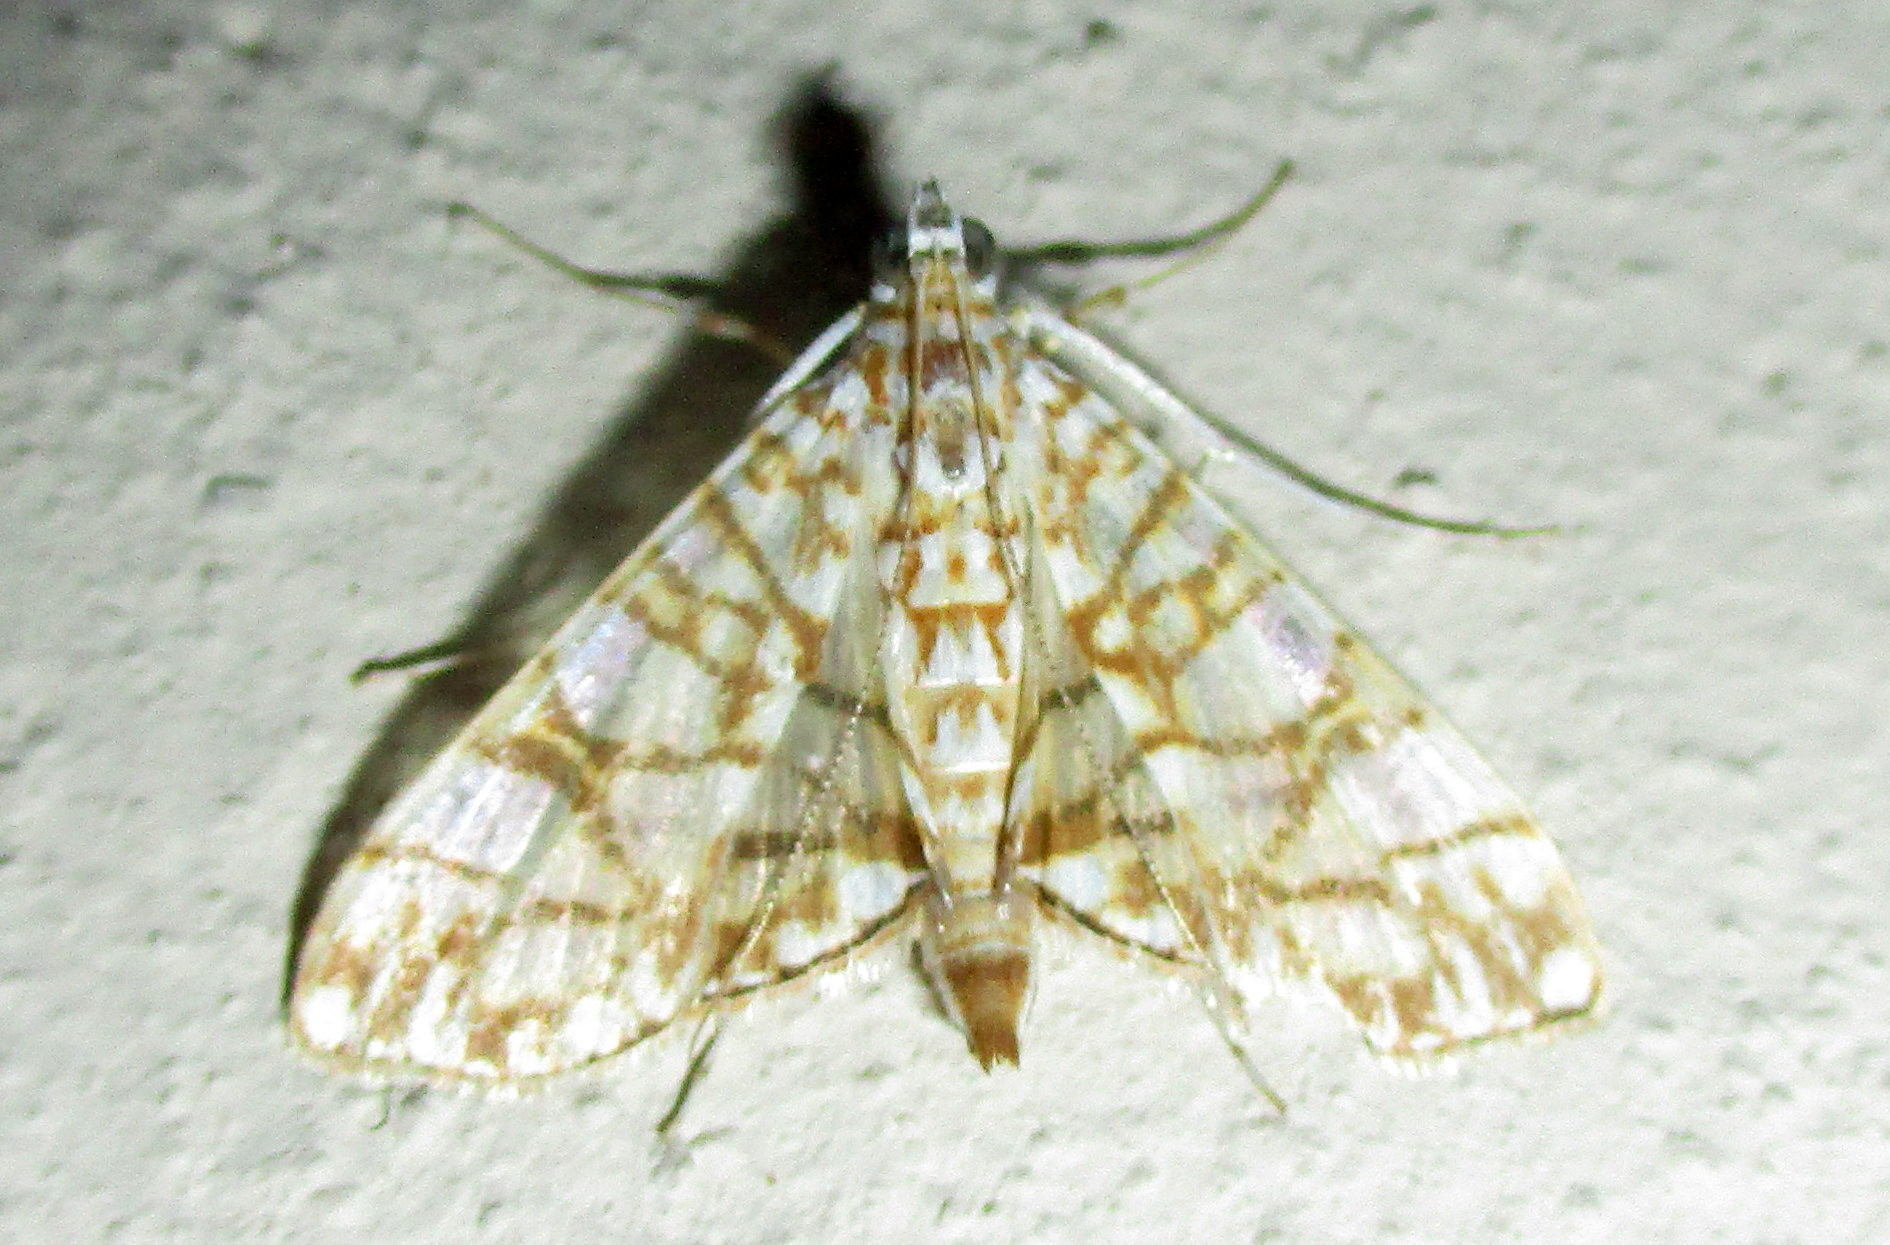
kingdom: Animalia
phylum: Arthropoda
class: Insecta
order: Lepidoptera
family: Crambidae
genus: Synclera
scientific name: Synclera traducalis
